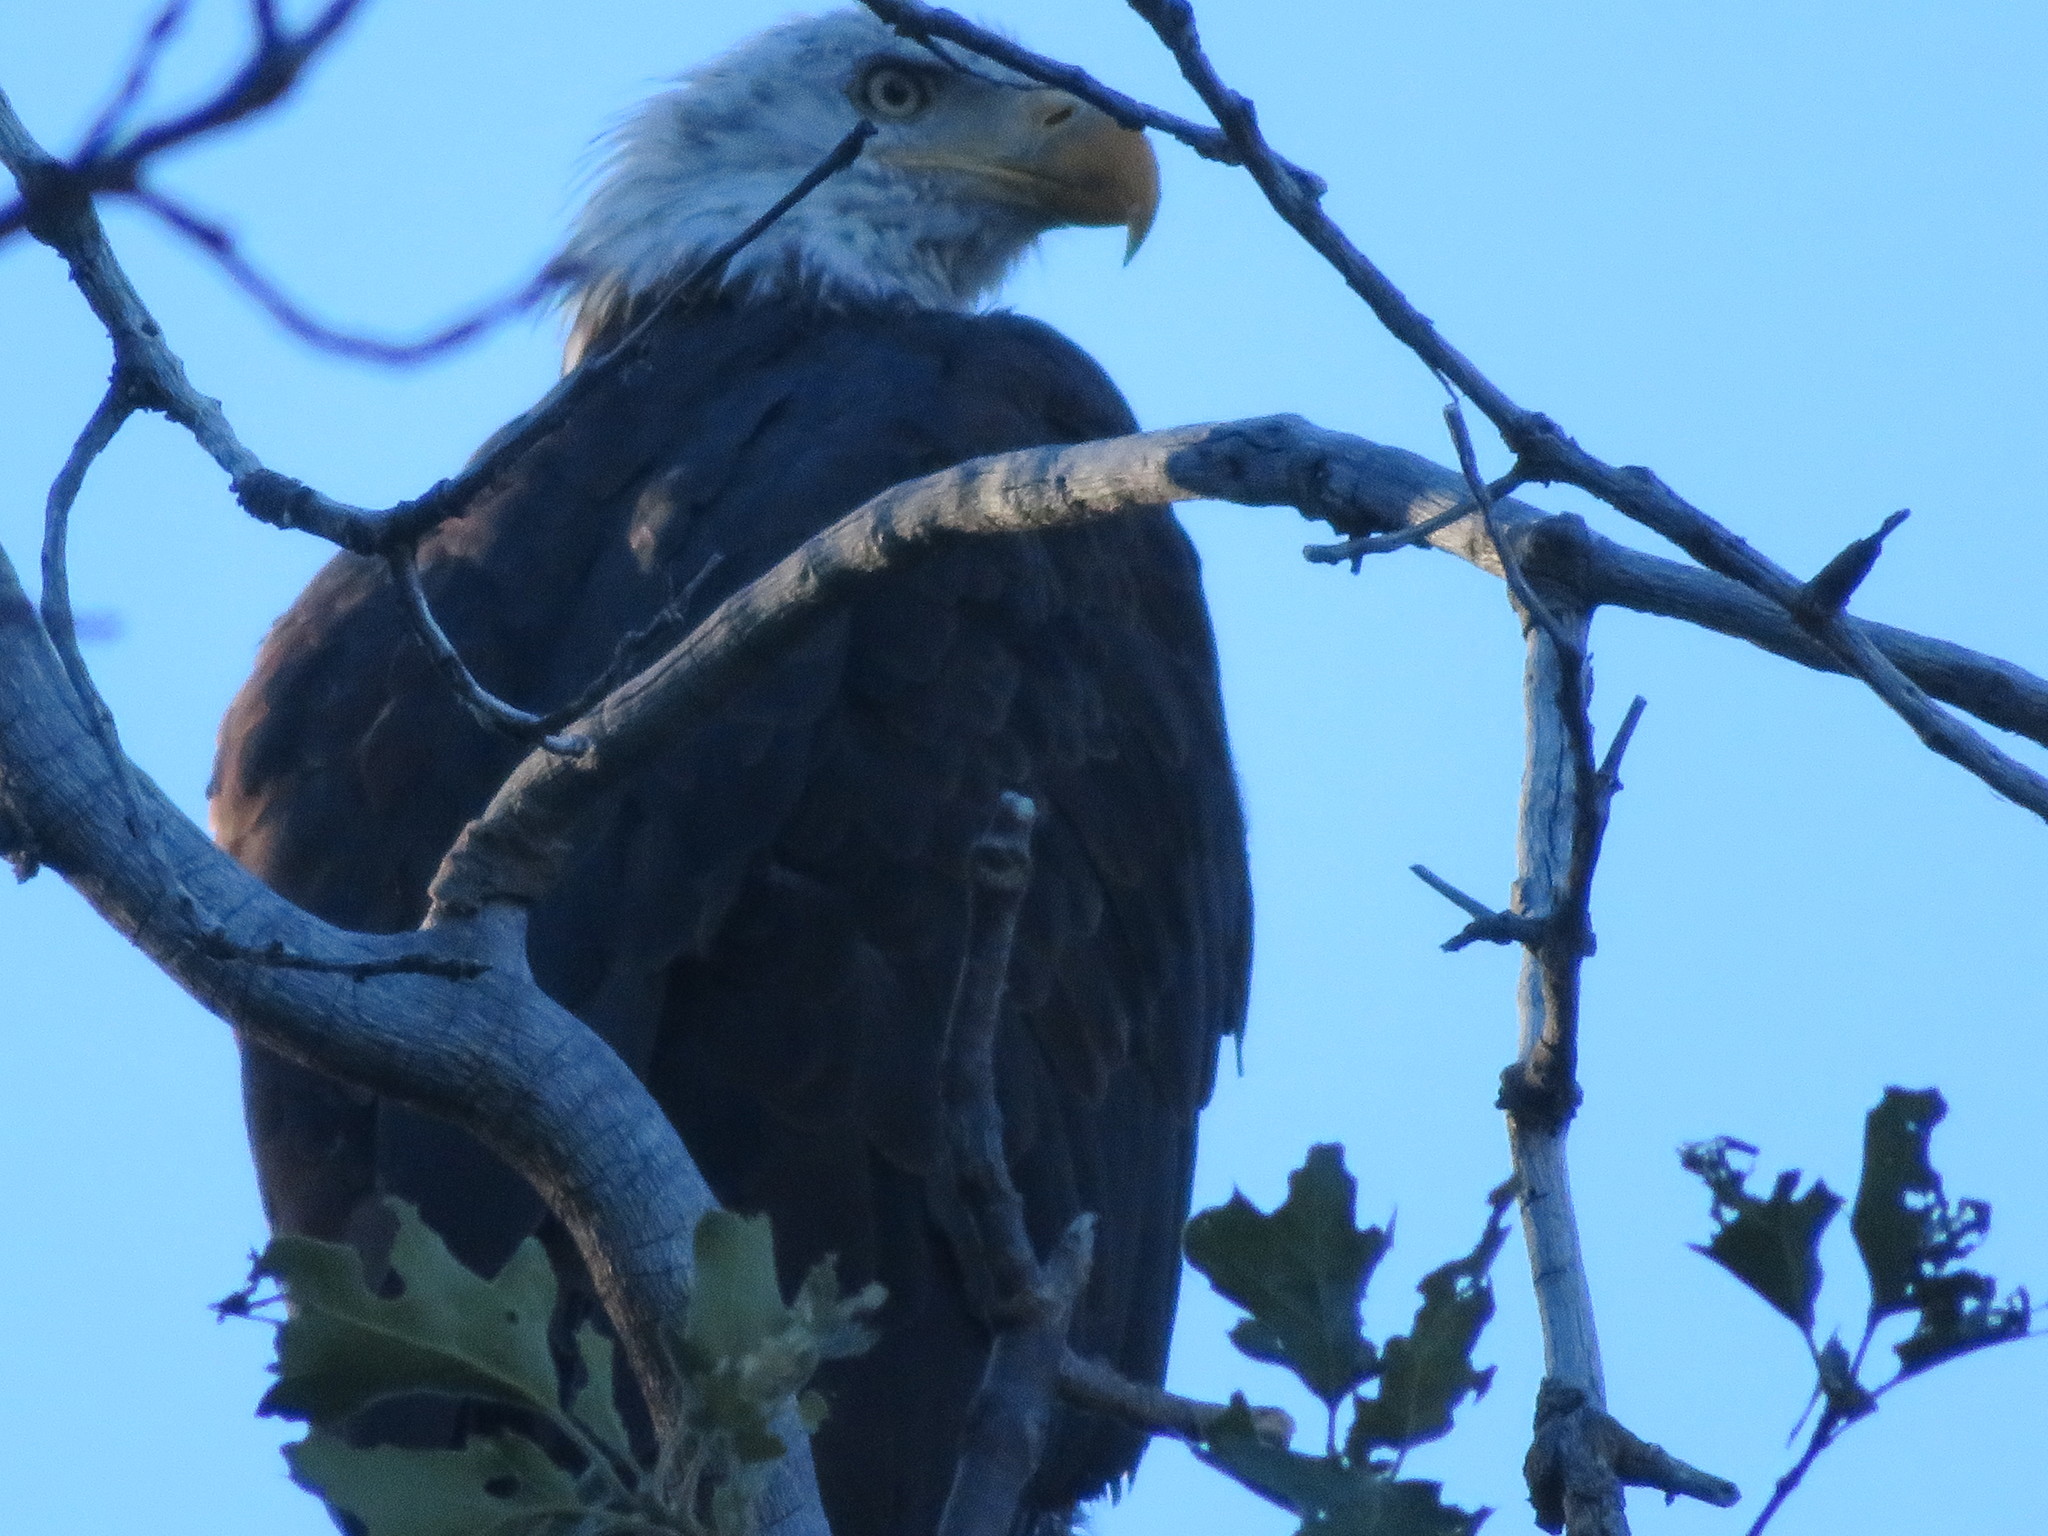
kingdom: Animalia
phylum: Chordata
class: Aves
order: Accipitriformes
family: Accipitridae
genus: Haliaeetus
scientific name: Haliaeetus leucocephalus
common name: Bald eagle
